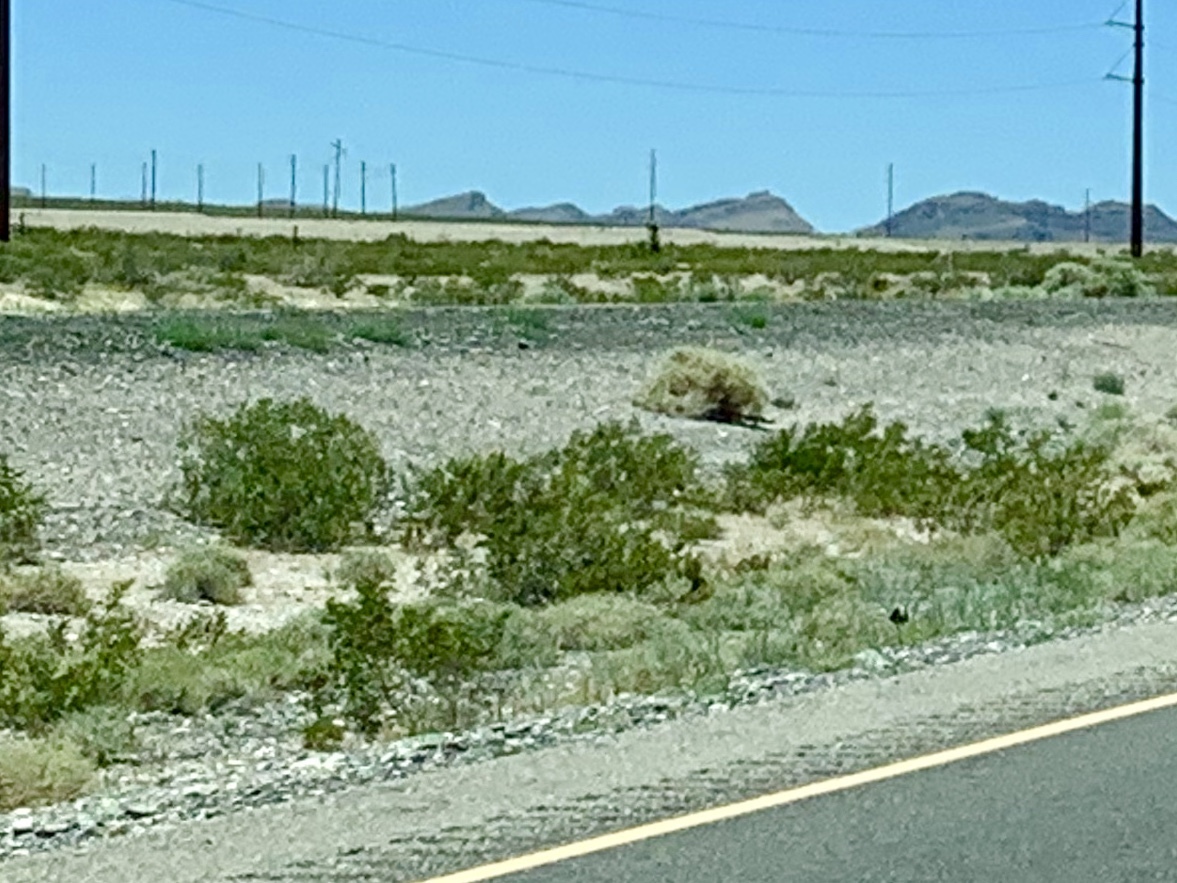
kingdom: Plantae
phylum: Tracheophyta
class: Magnoliopsida
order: Zygophyllales
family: Zygophyllaceae
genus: Larrea
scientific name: Larrea tridentata
